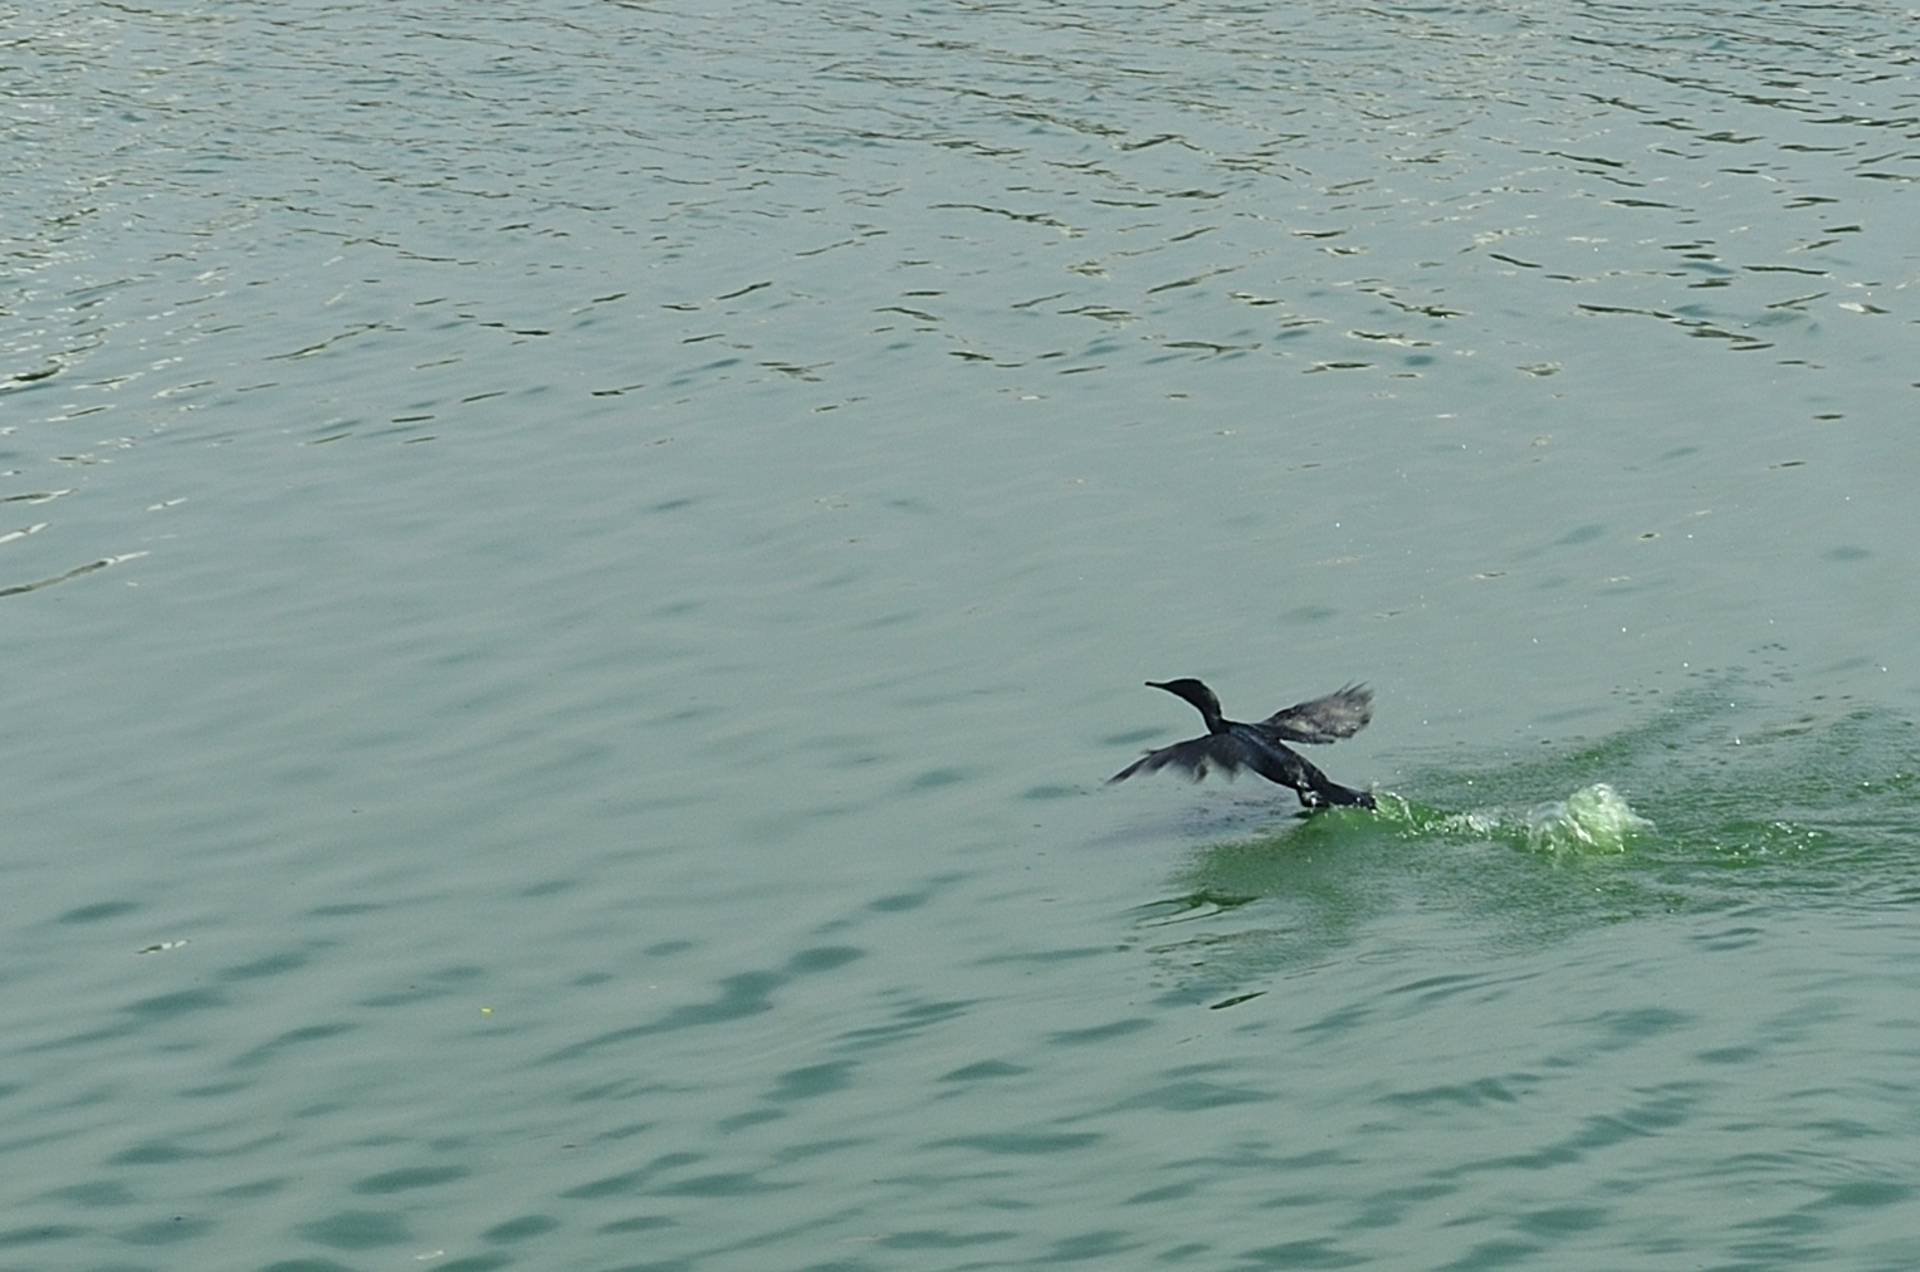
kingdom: Animalia
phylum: Chordata
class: Aves
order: Suliformes
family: Phalacrocoracidae
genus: Microcarbo
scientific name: Microcarbo niger
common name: Little cormorant
